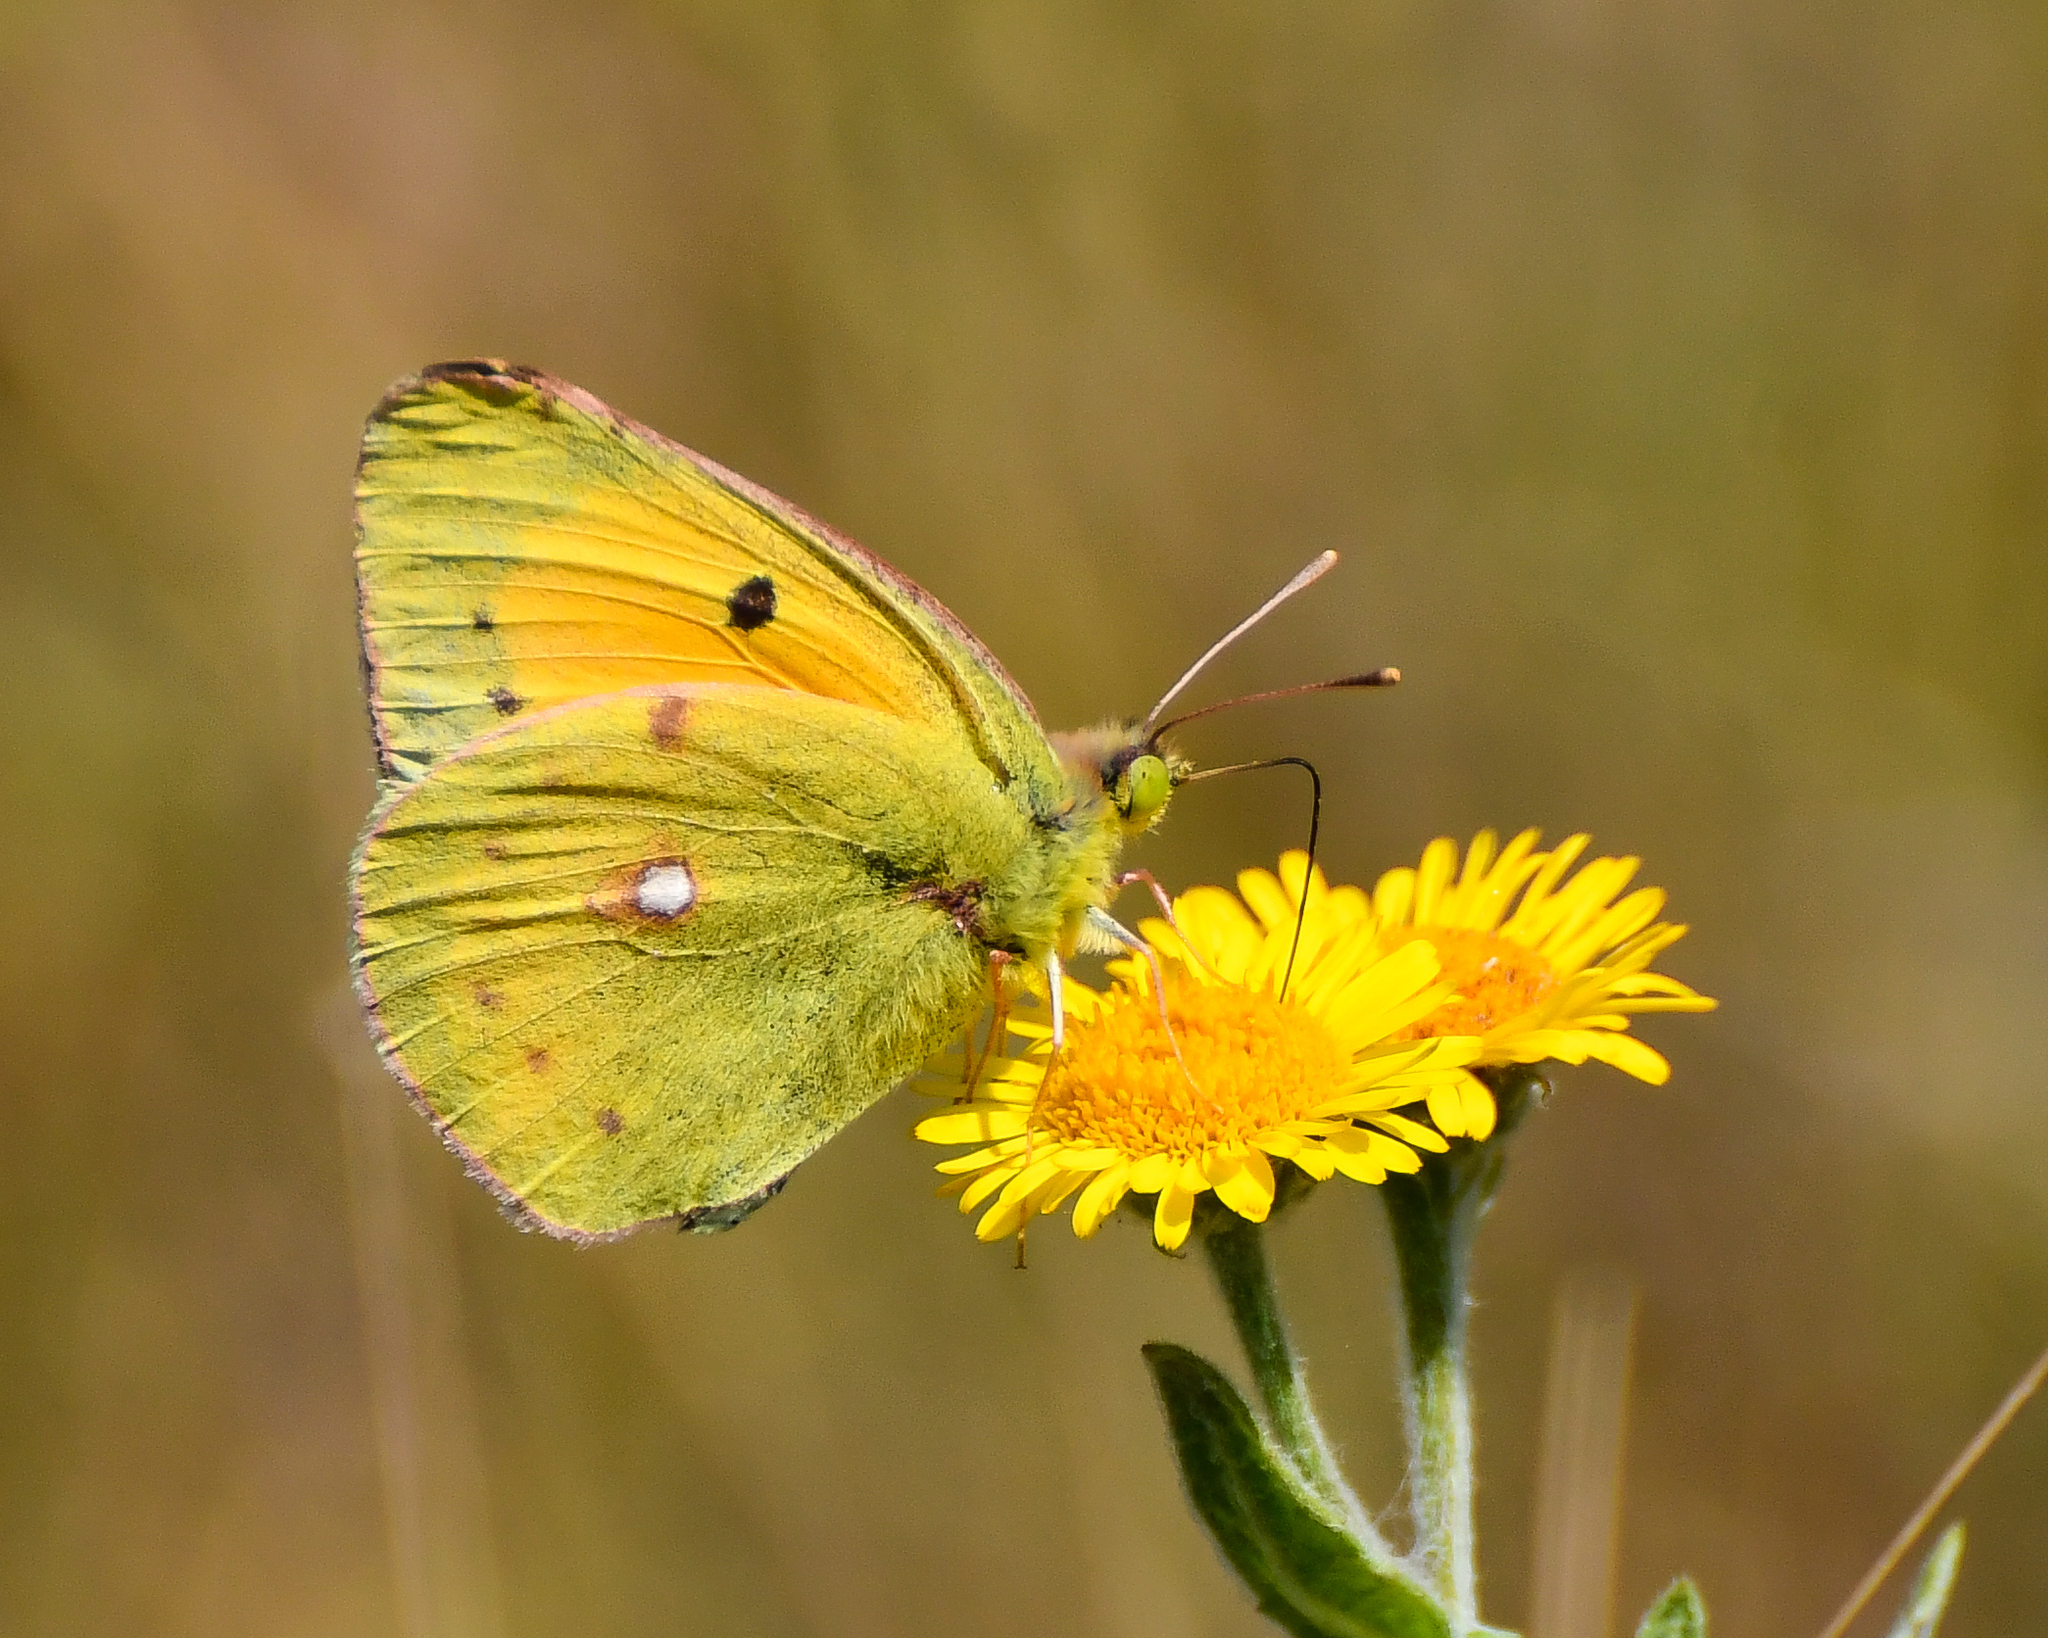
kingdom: Animalia
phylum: Arthropoda
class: Insecta
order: Lepidoptera
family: Pieridae
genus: Colias
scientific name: Colias croceus
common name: Clouded yellow
